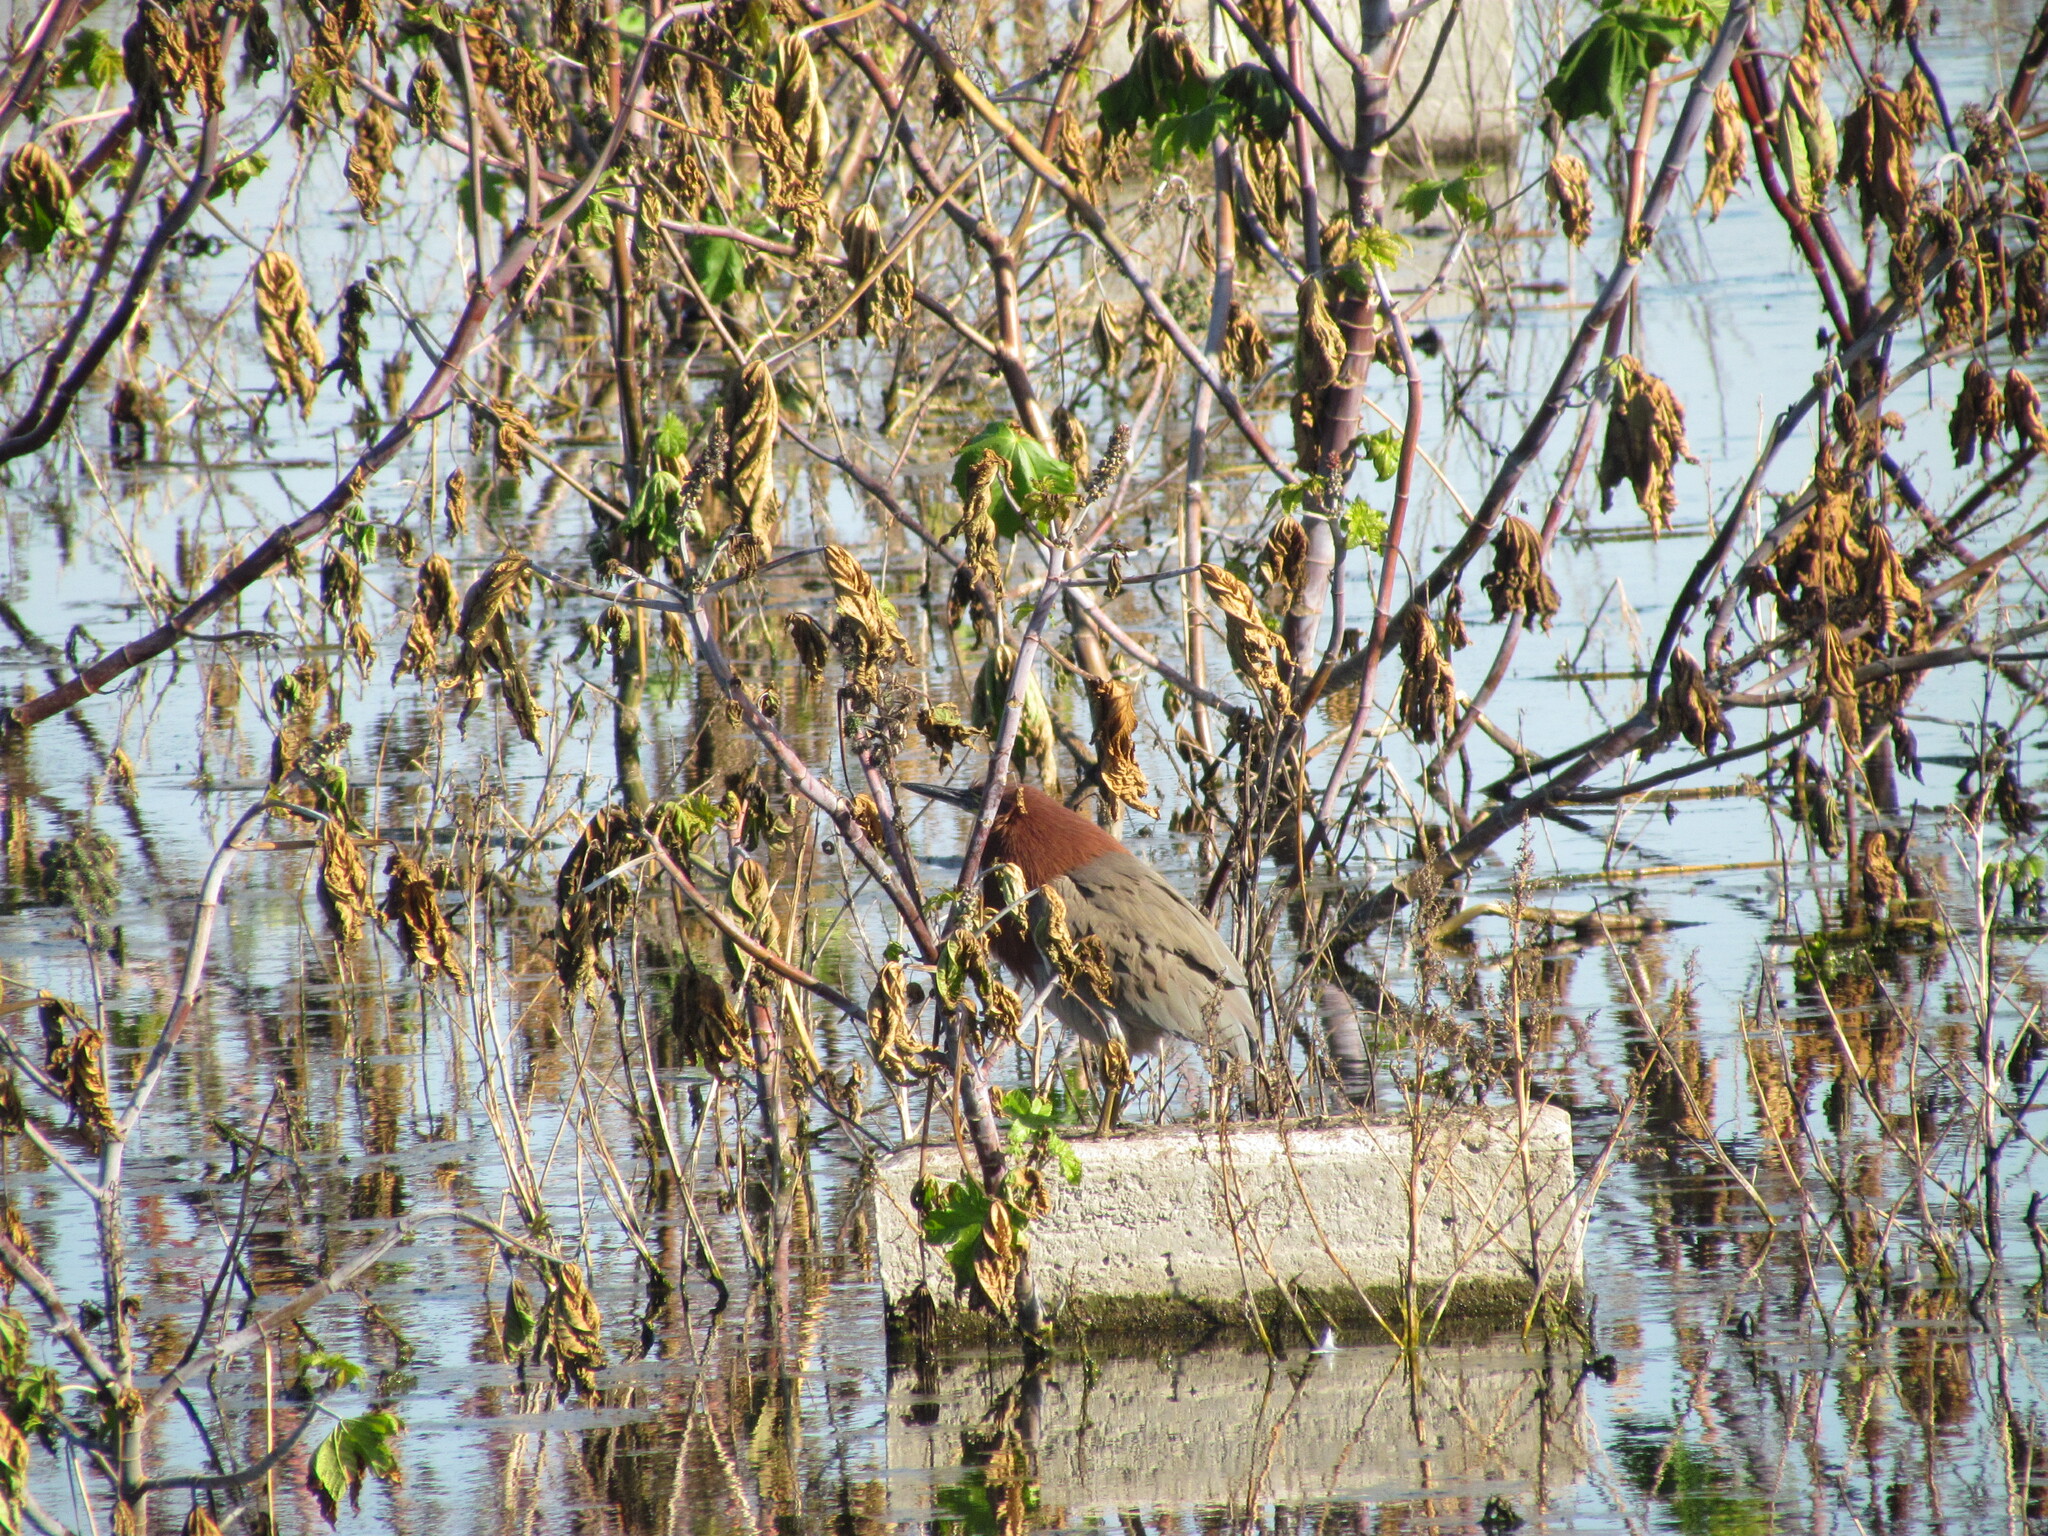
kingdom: Animalia
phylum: Chordata
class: Aves
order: Pelecaniformes
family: Ardeidae
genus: Tigrisoma
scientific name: Tigrisoma lineatum
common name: Rufescent tiger-heron
